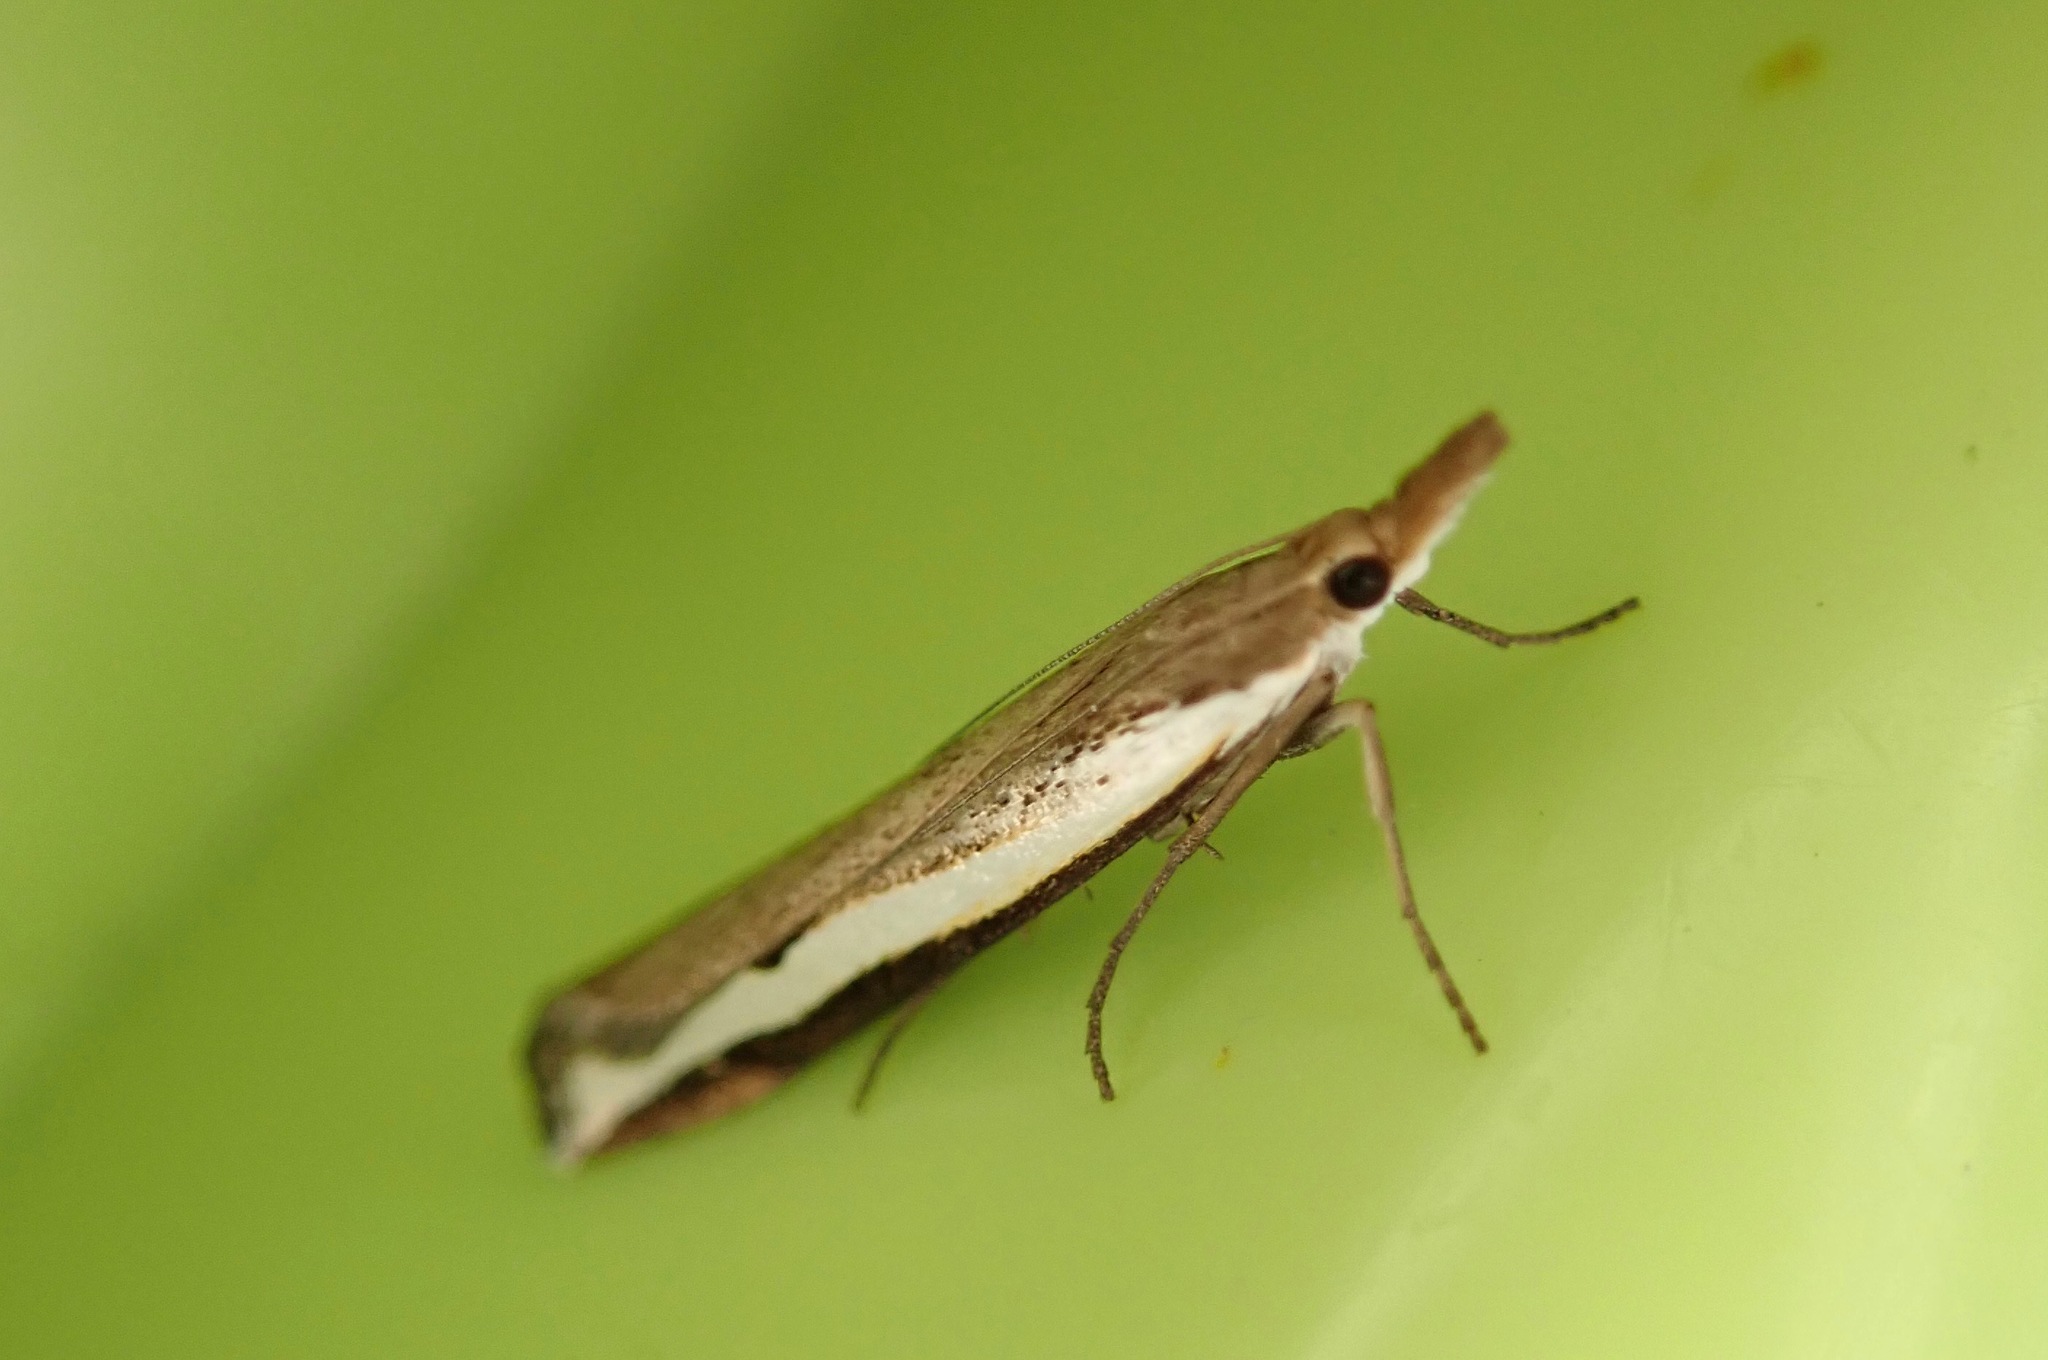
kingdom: Animalia
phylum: Arthropoda
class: Insecta
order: Lepidoptera
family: Crambidae
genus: Orocrambus
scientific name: Orocrambus flexuosellus
